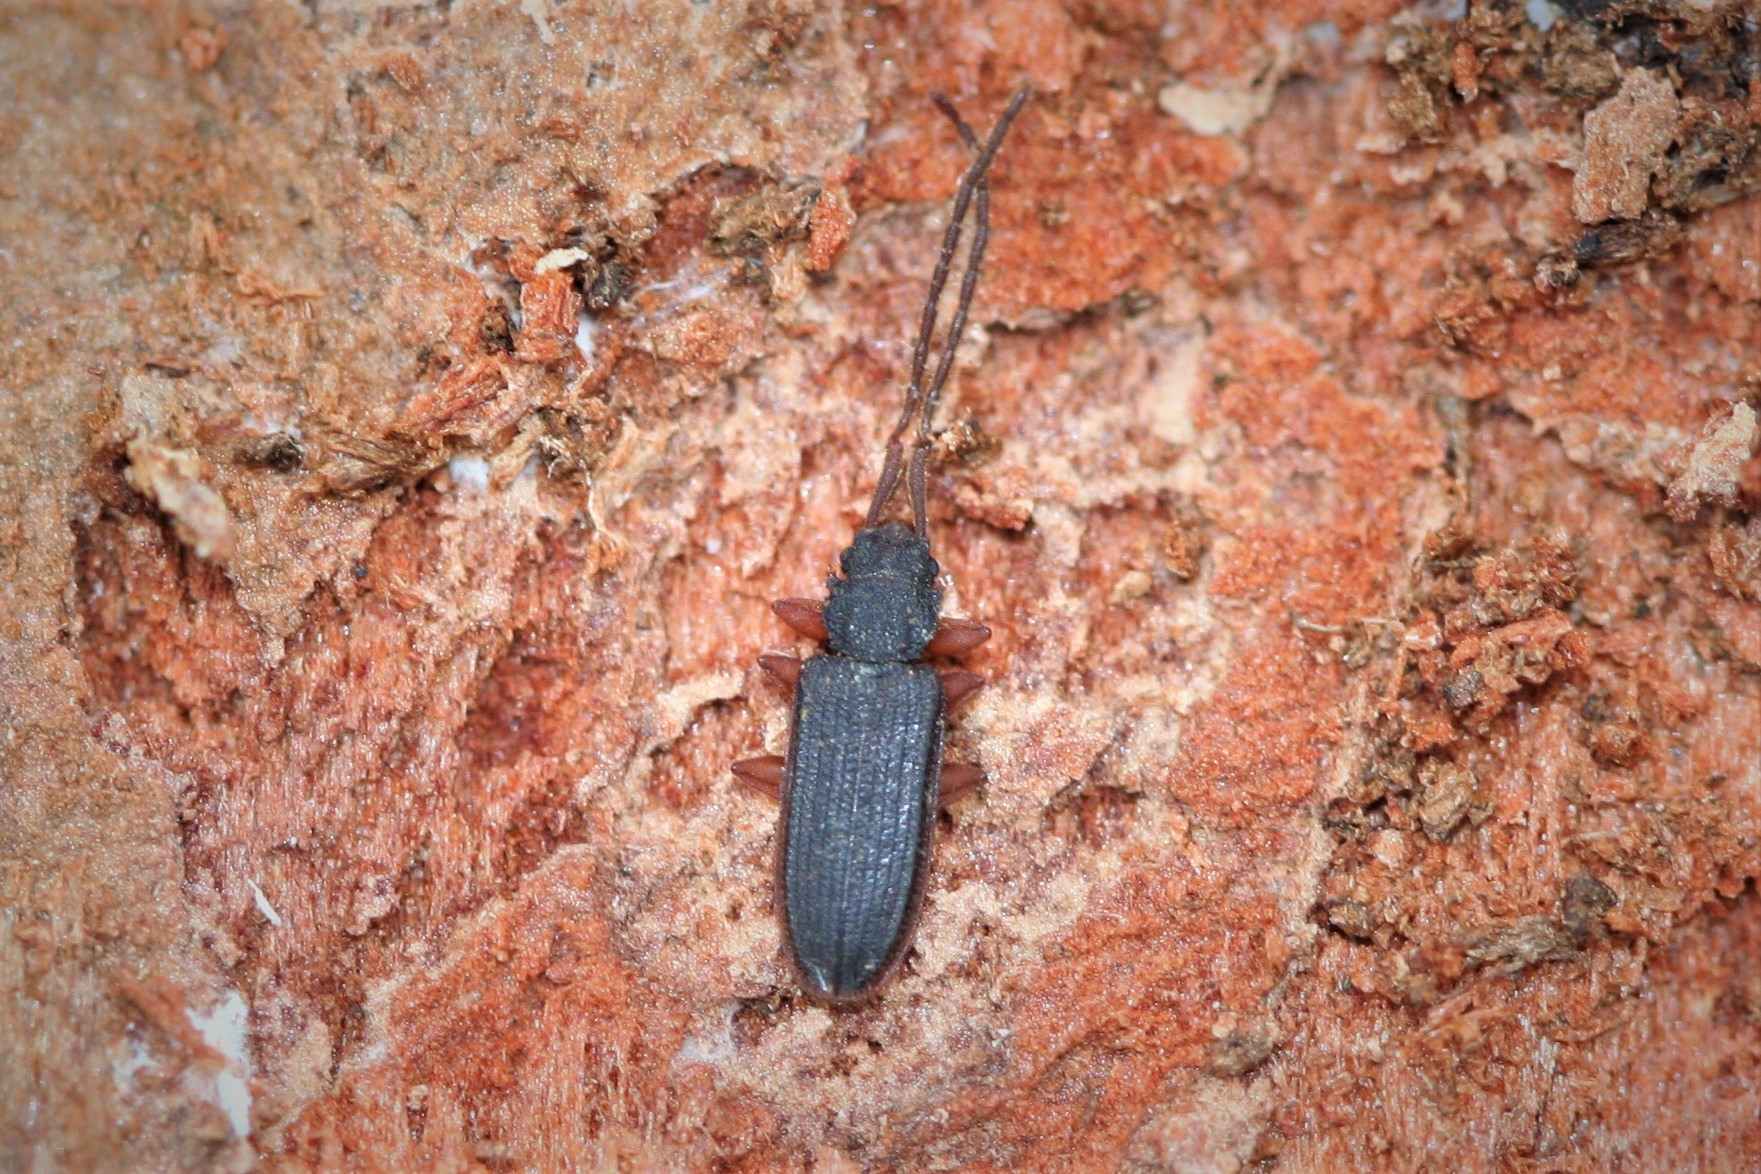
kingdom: Animalia
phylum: Arthropoda
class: Insecta
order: Coleoptera
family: Silvanidae
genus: Uleiota
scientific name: Uleiota planatus
